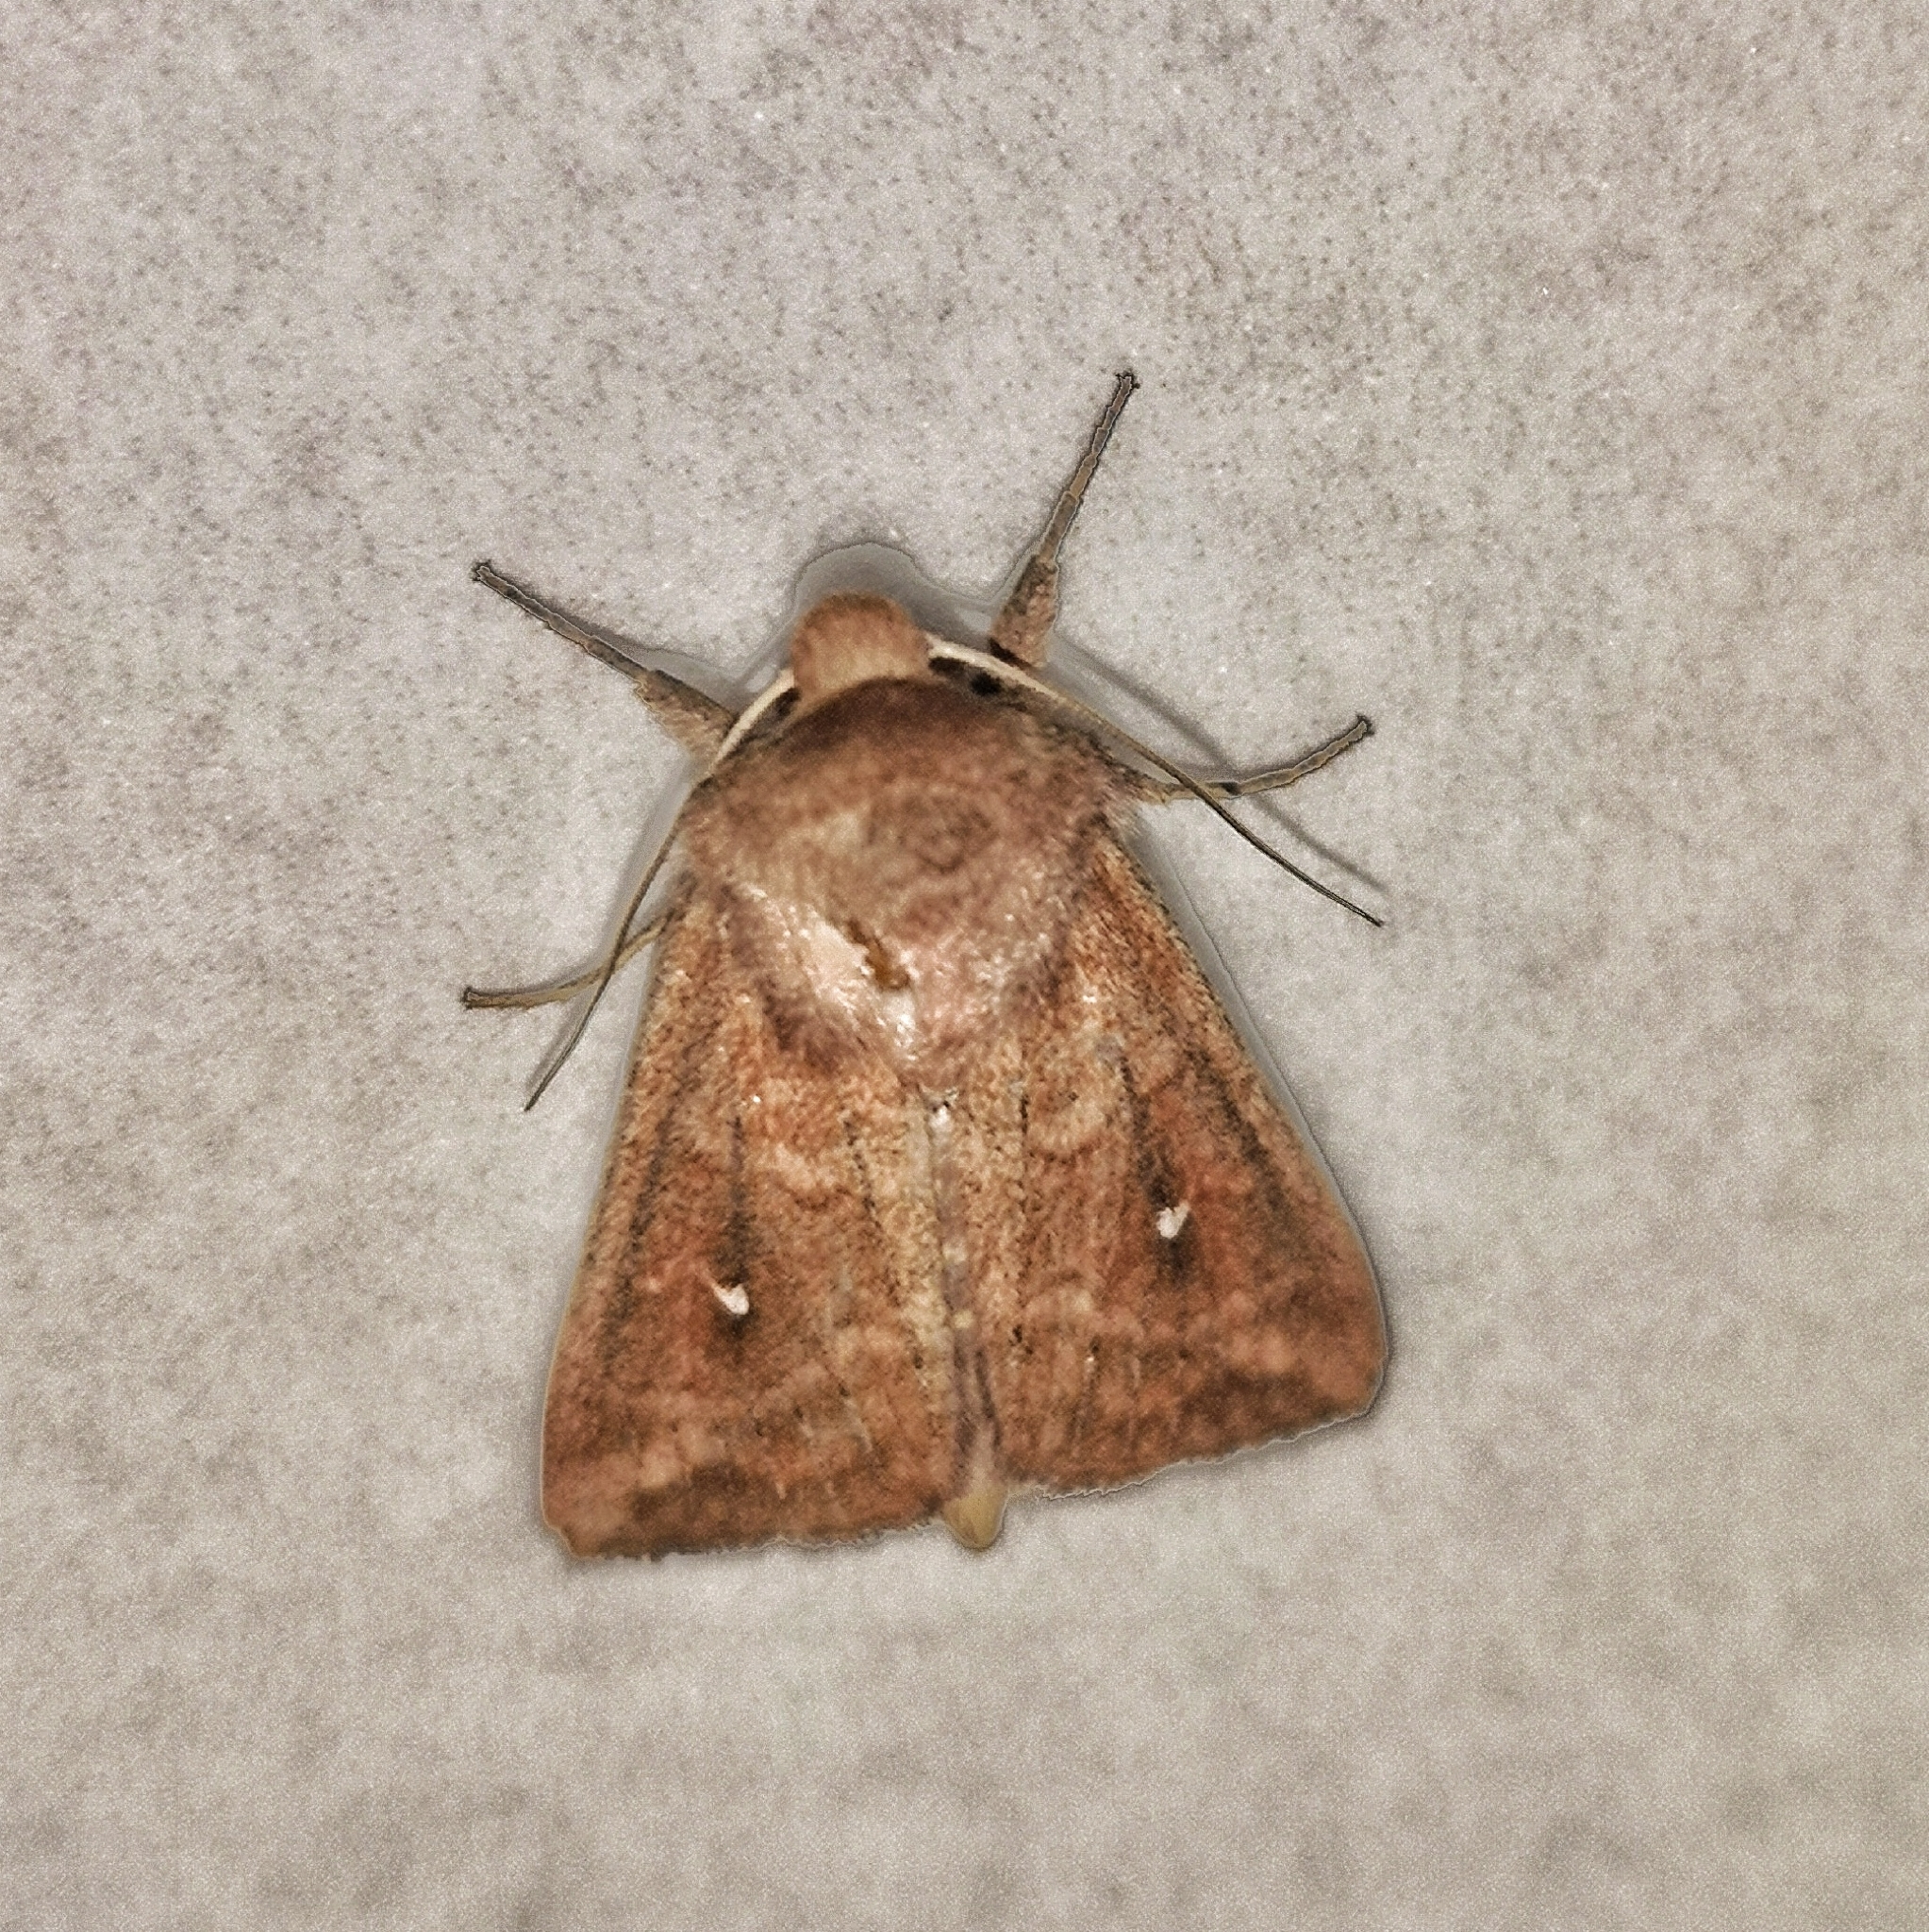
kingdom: Animalia
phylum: Arthropoda
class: Insecta
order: Lepidoptera
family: Noctuidae
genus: Mythimna
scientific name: Mythimna albipuncta
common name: White-point
